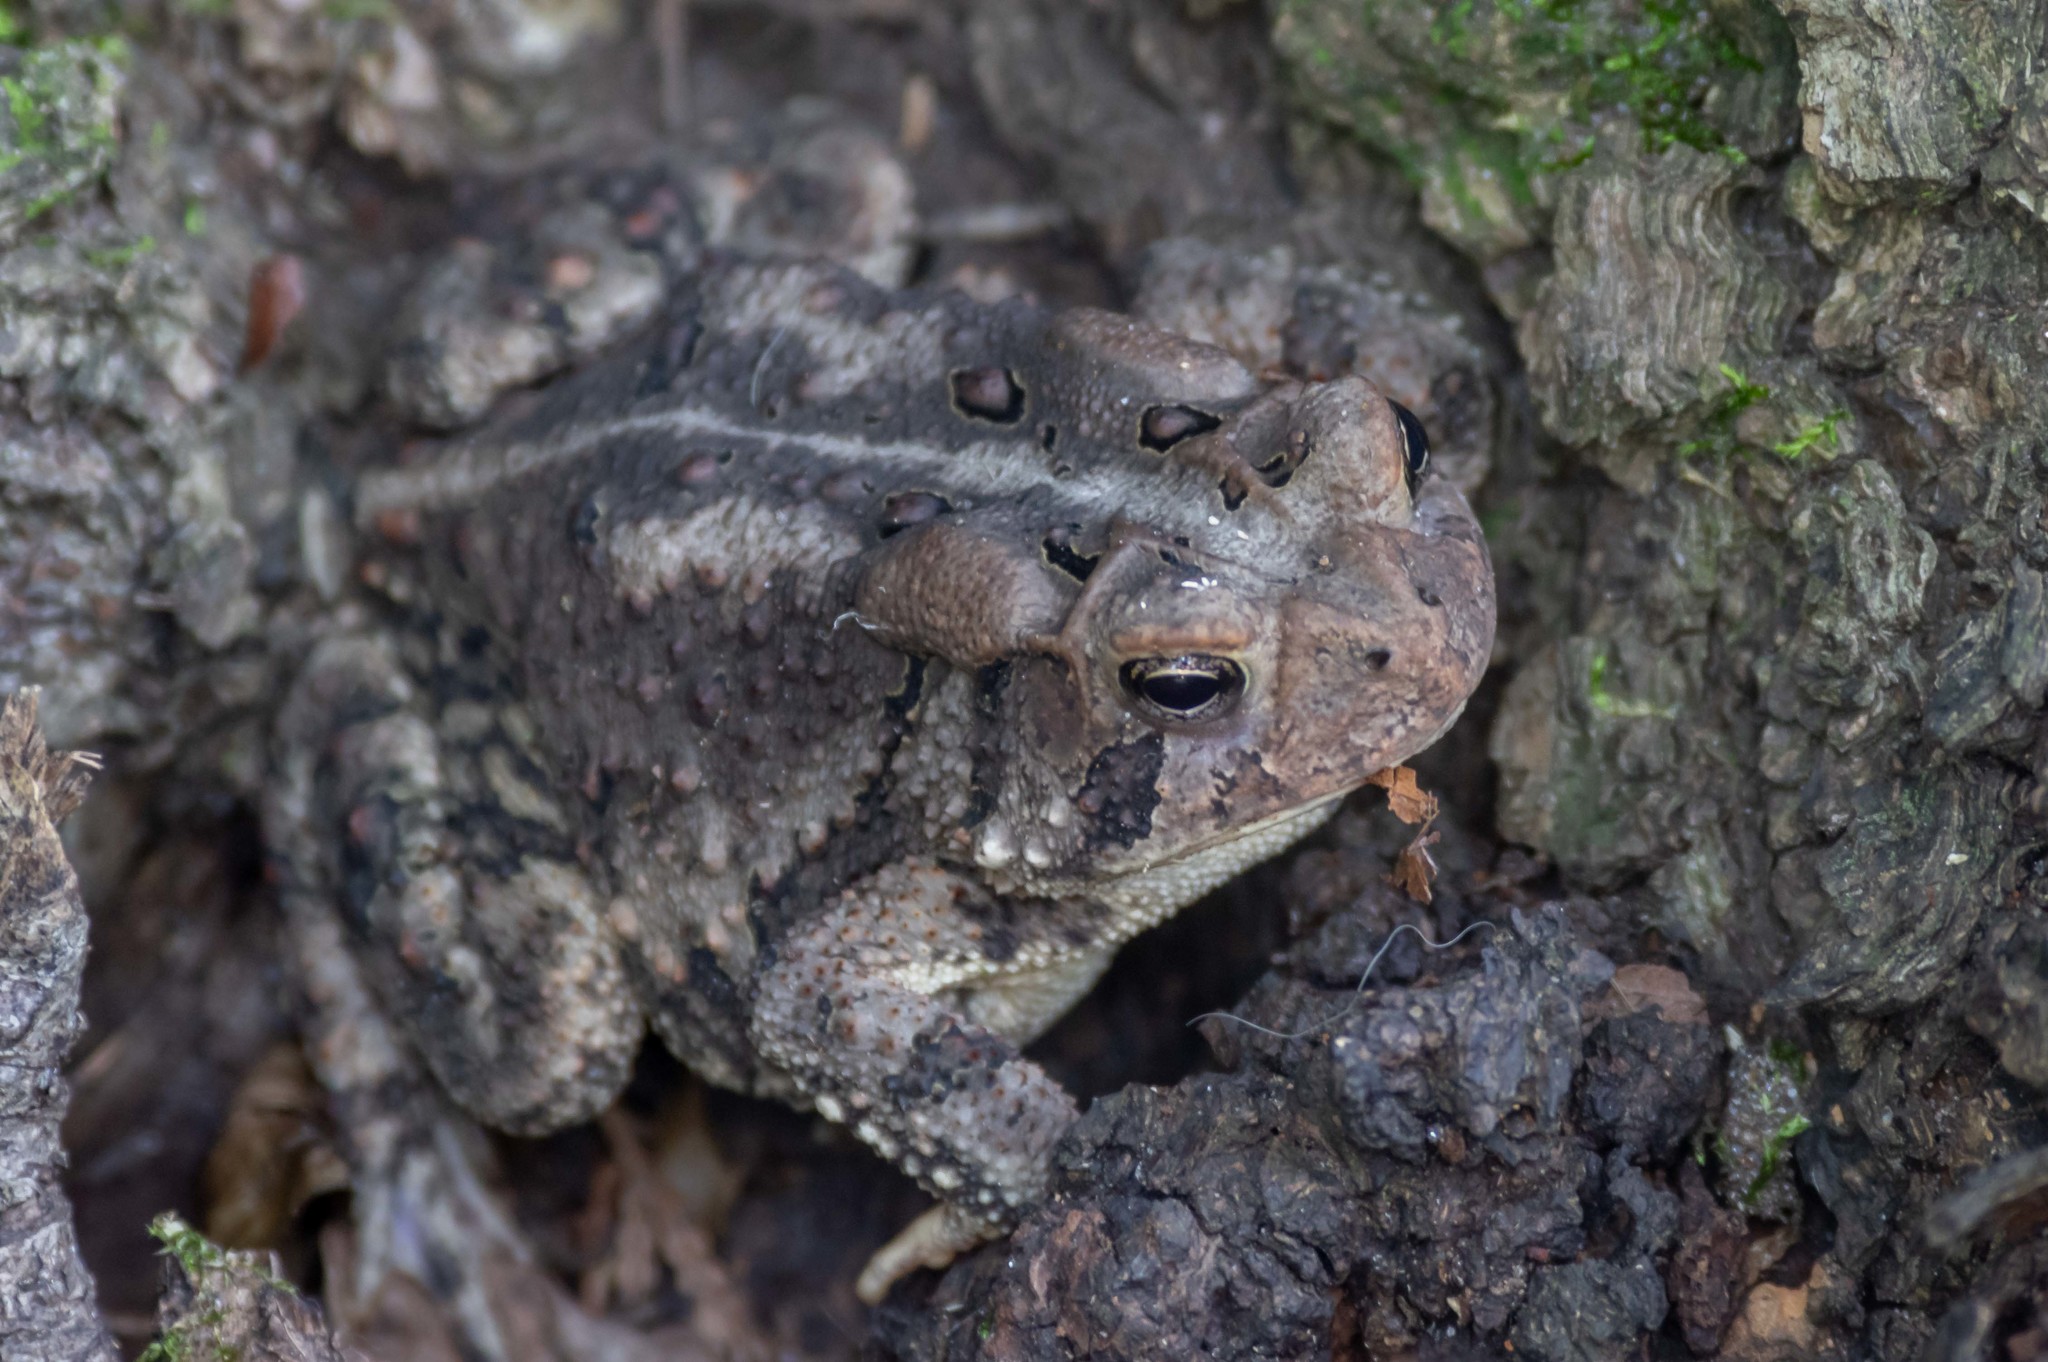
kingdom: Animalia
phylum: Chordata
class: Amphibia
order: Anura
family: Bufonidae
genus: Anaxyrus
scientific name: Anaxyrus americanus
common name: American toad
